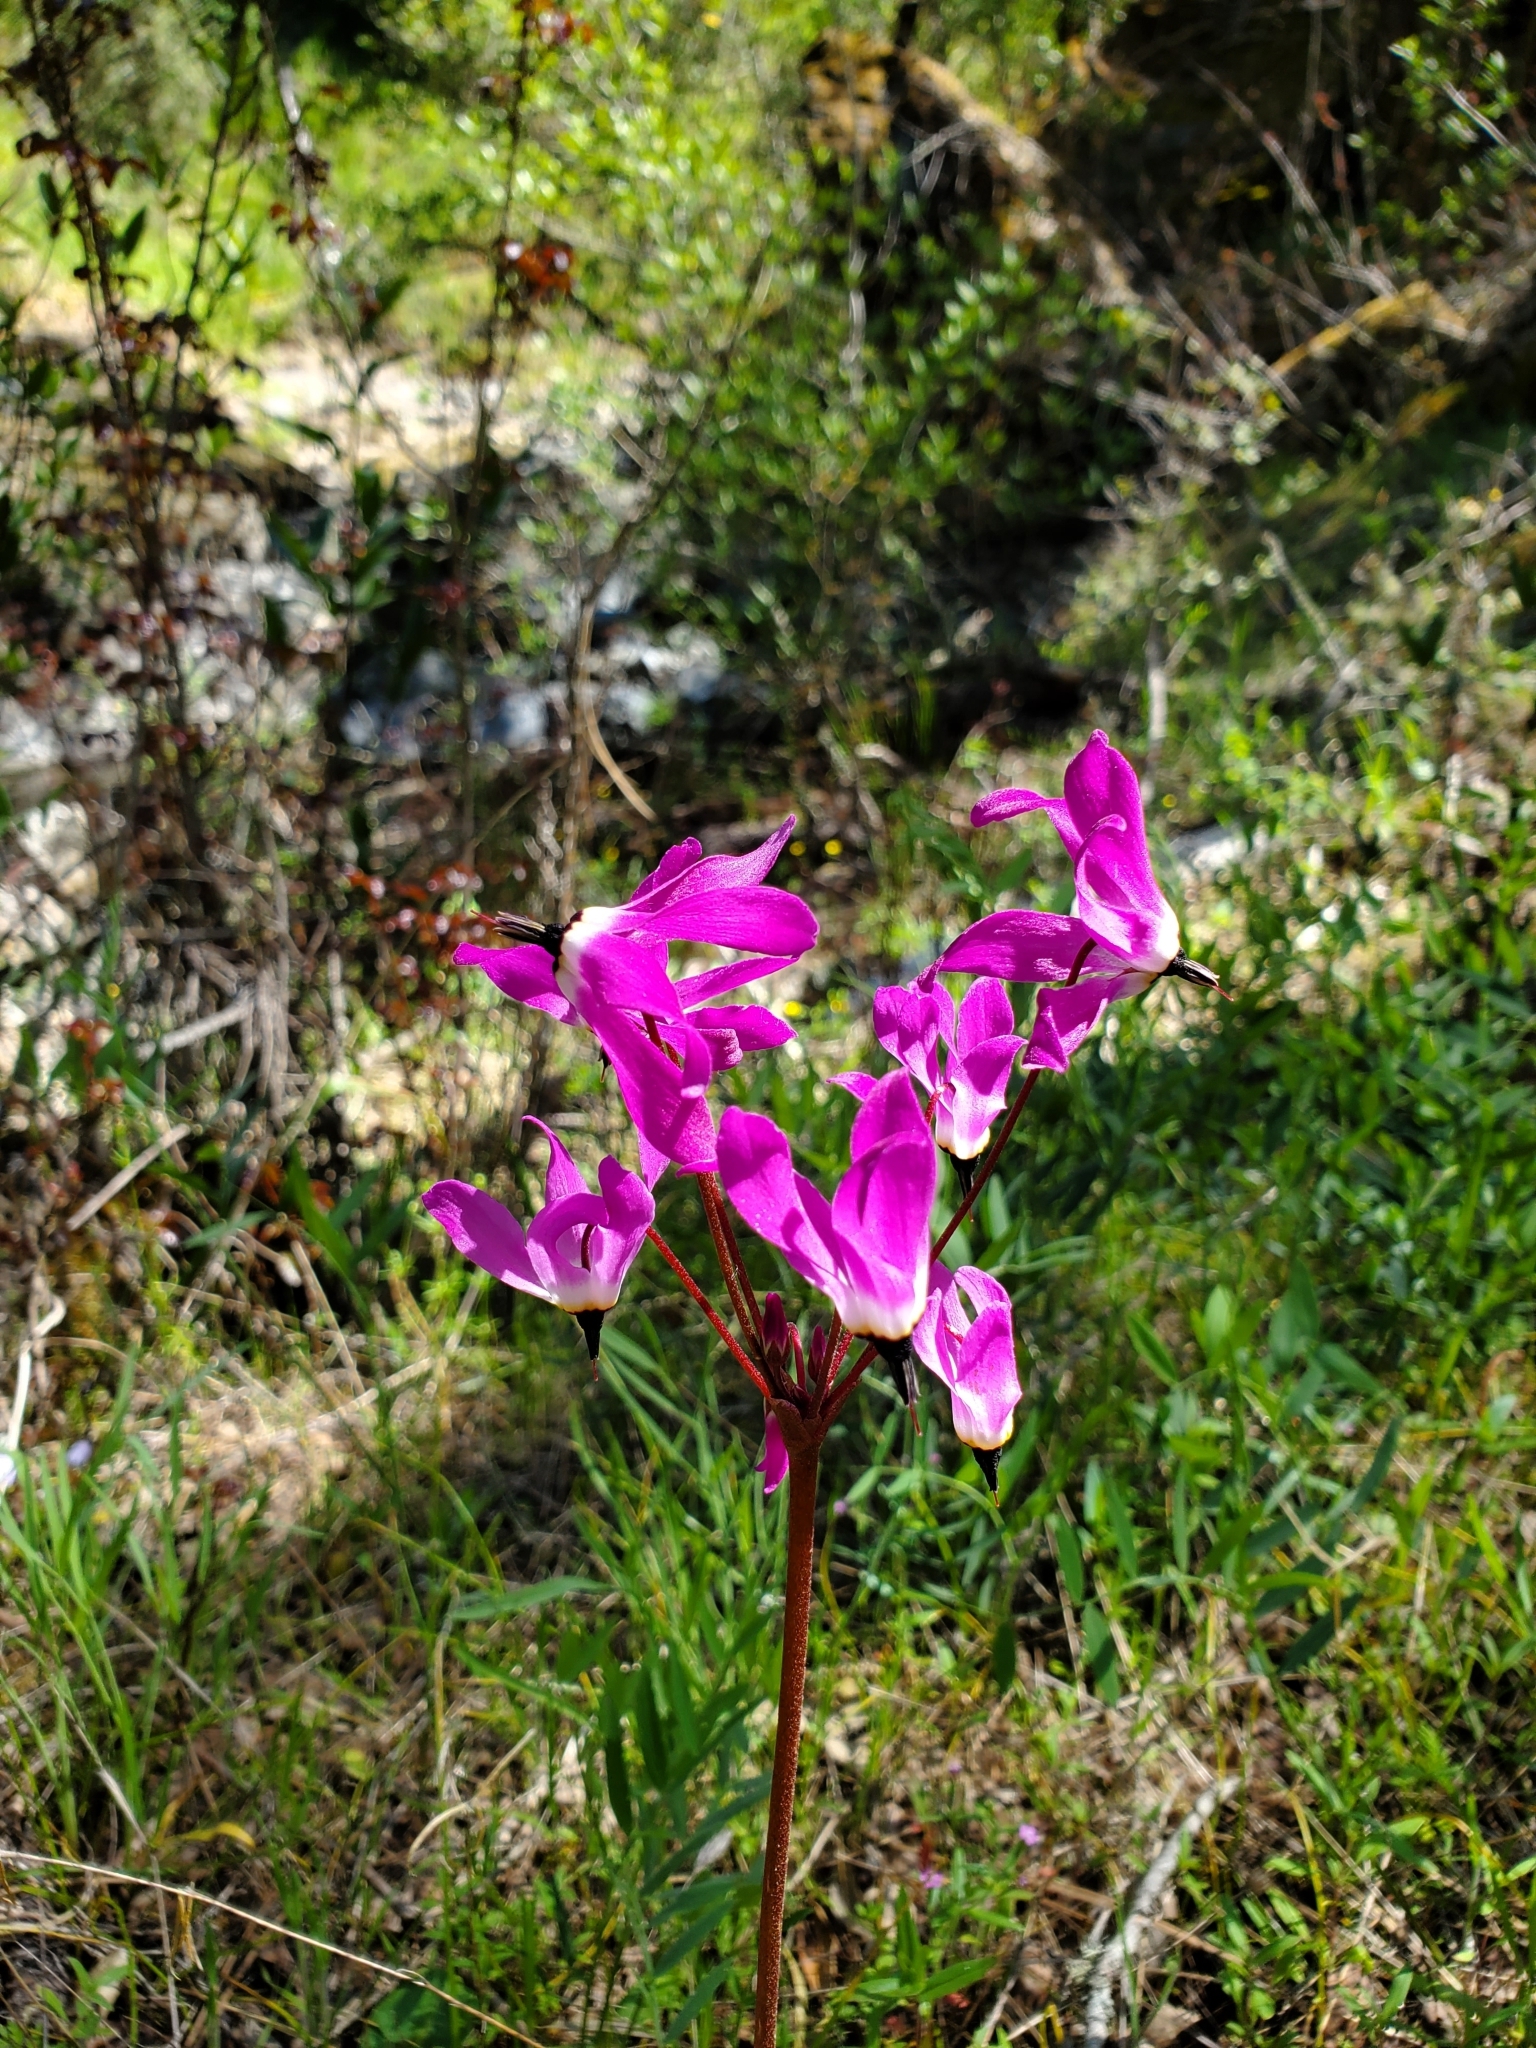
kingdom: Plantae
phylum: Tracheophyta
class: Magnoliopsida
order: Ericales
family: Primulaceae
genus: Dodecatheon
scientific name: Dodecatheon hendersonii
